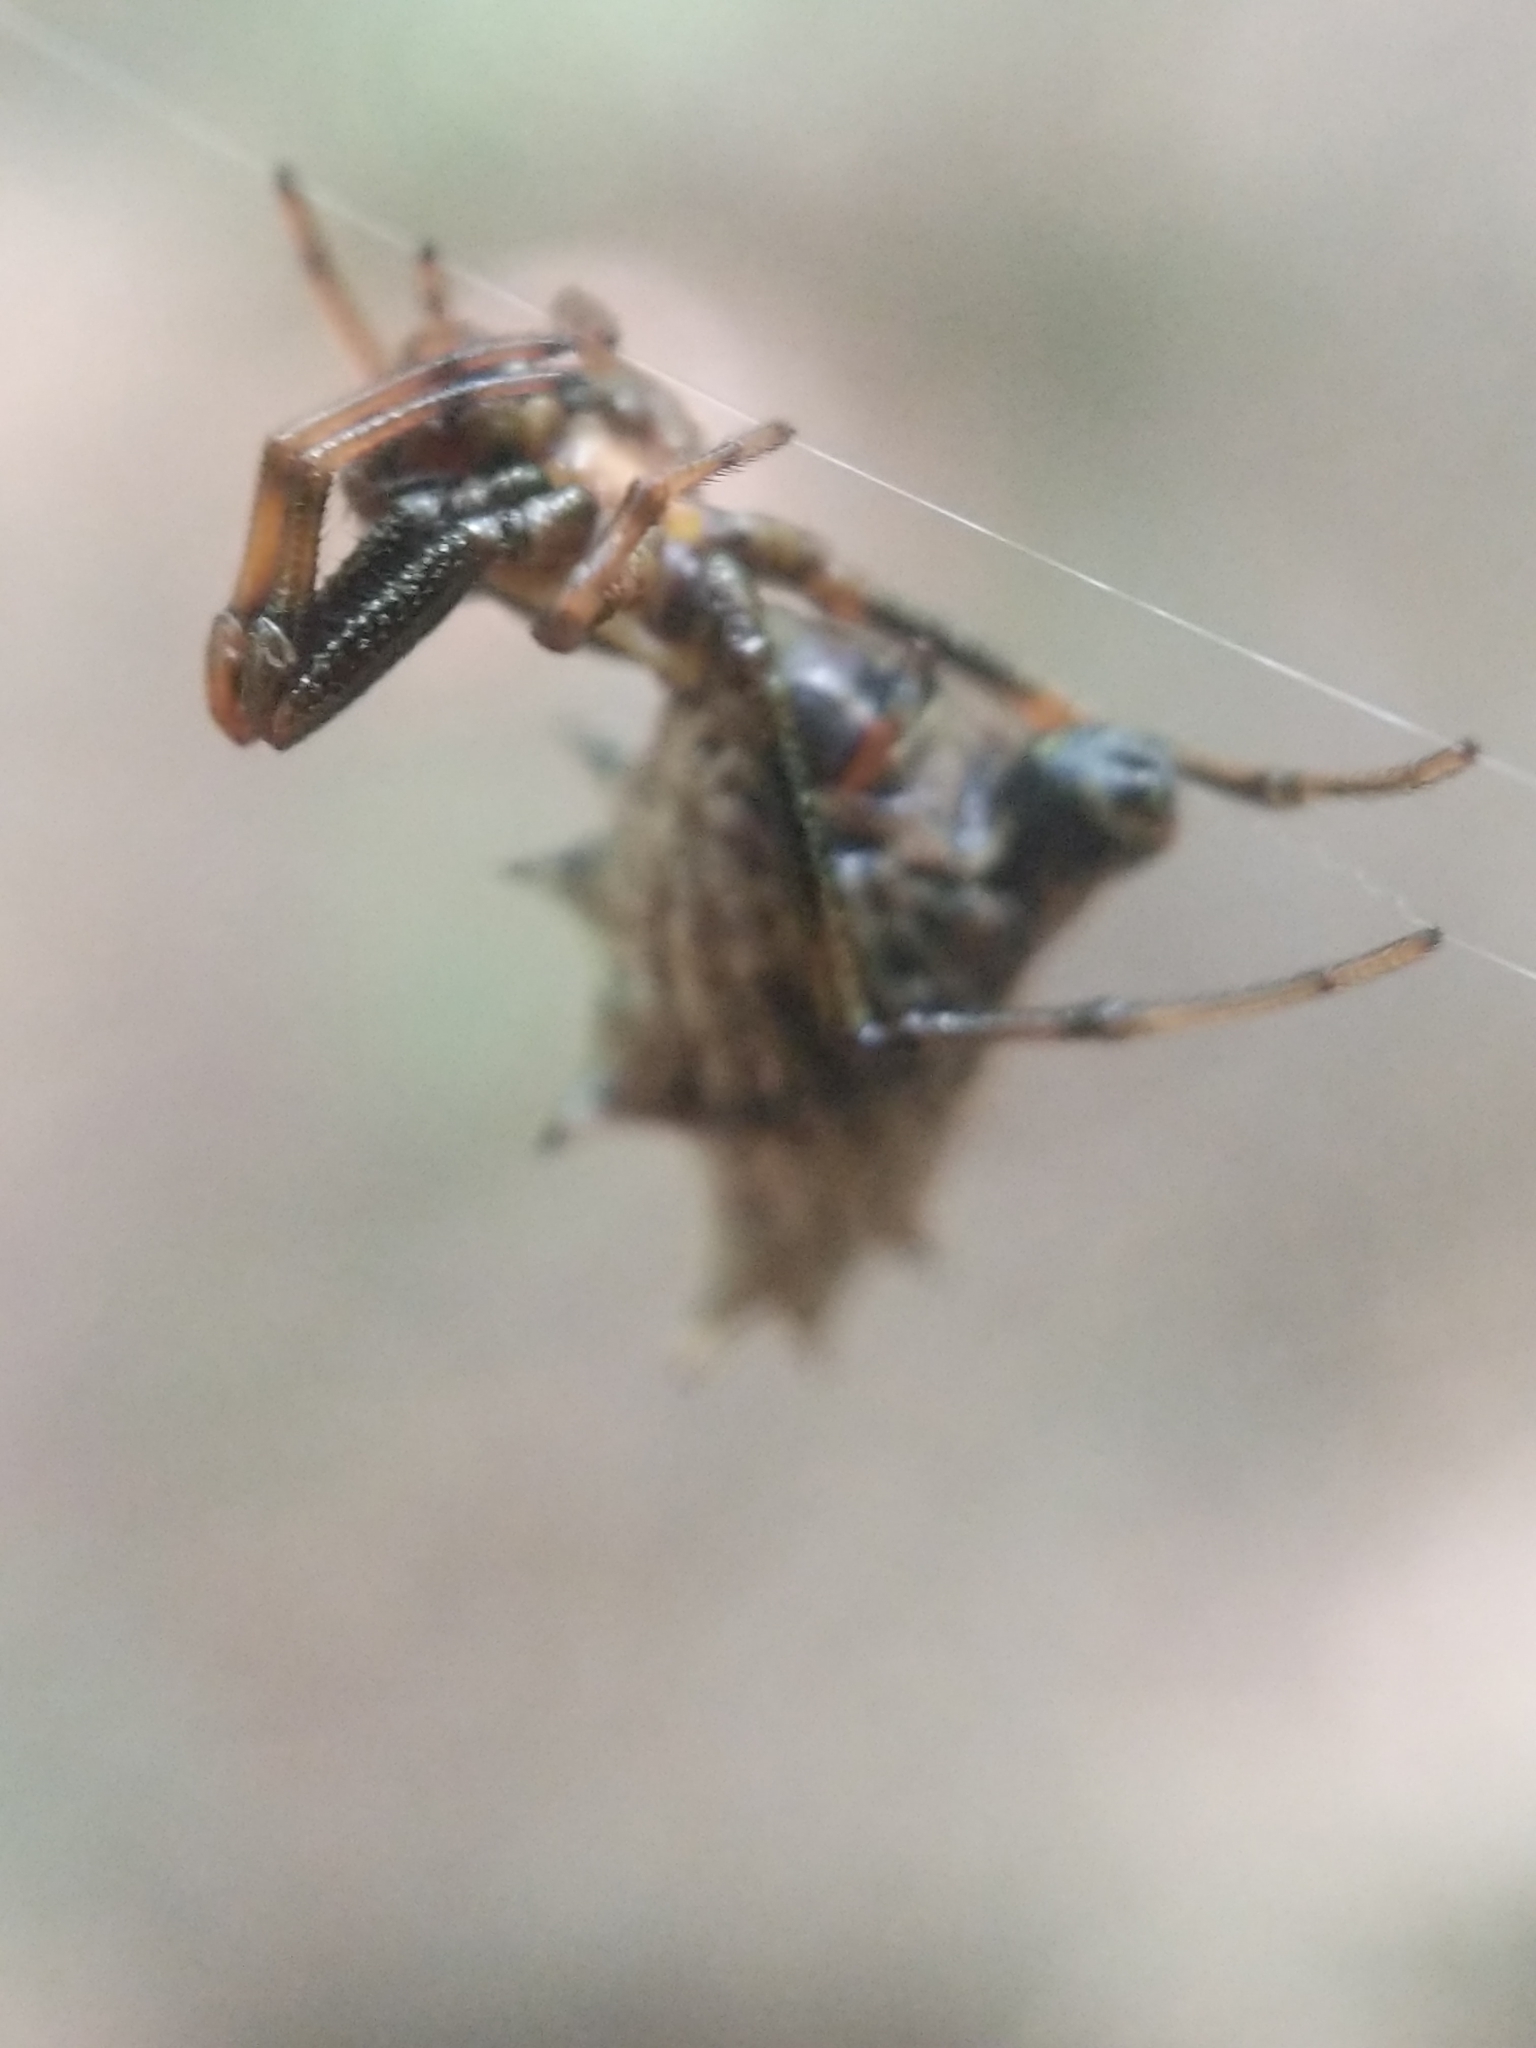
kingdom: Animalia
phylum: Arthropoda
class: Arachnida
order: Araneae
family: Araneidae
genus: Micrathena
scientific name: Micrathena gracilis
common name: Orb weavers
